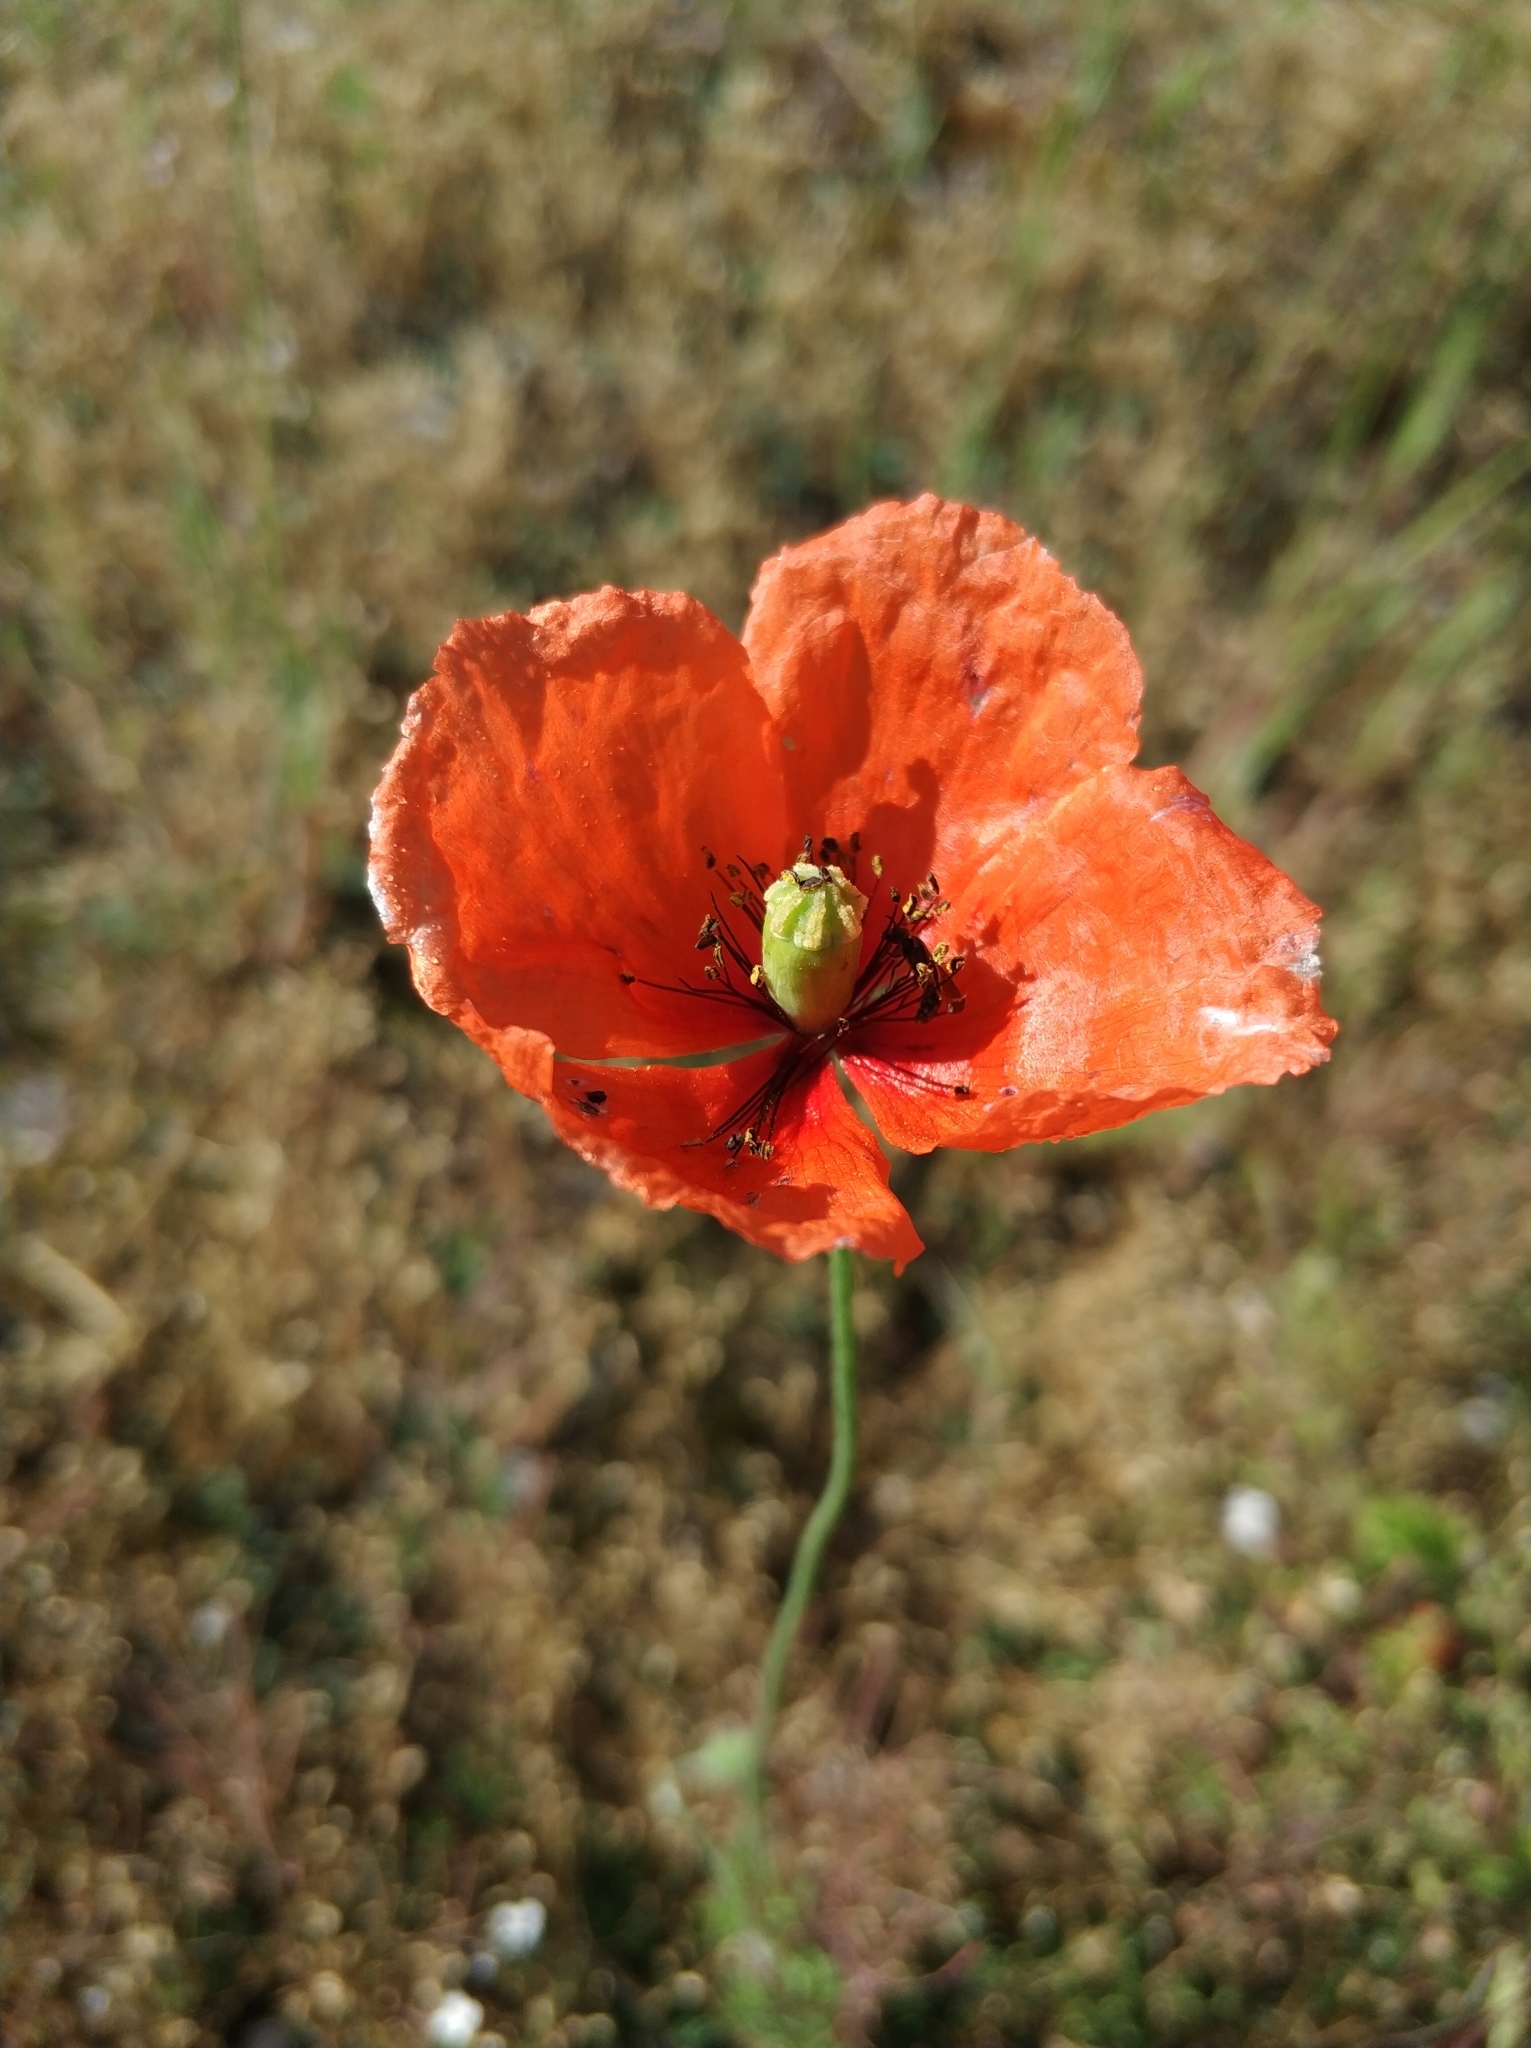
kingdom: Plantae
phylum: Tracheophyta
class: Magnoliopsida
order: Ranunculales
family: Papaveraceae
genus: Papaver
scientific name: Papaver dubium
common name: Long-headed poppy
